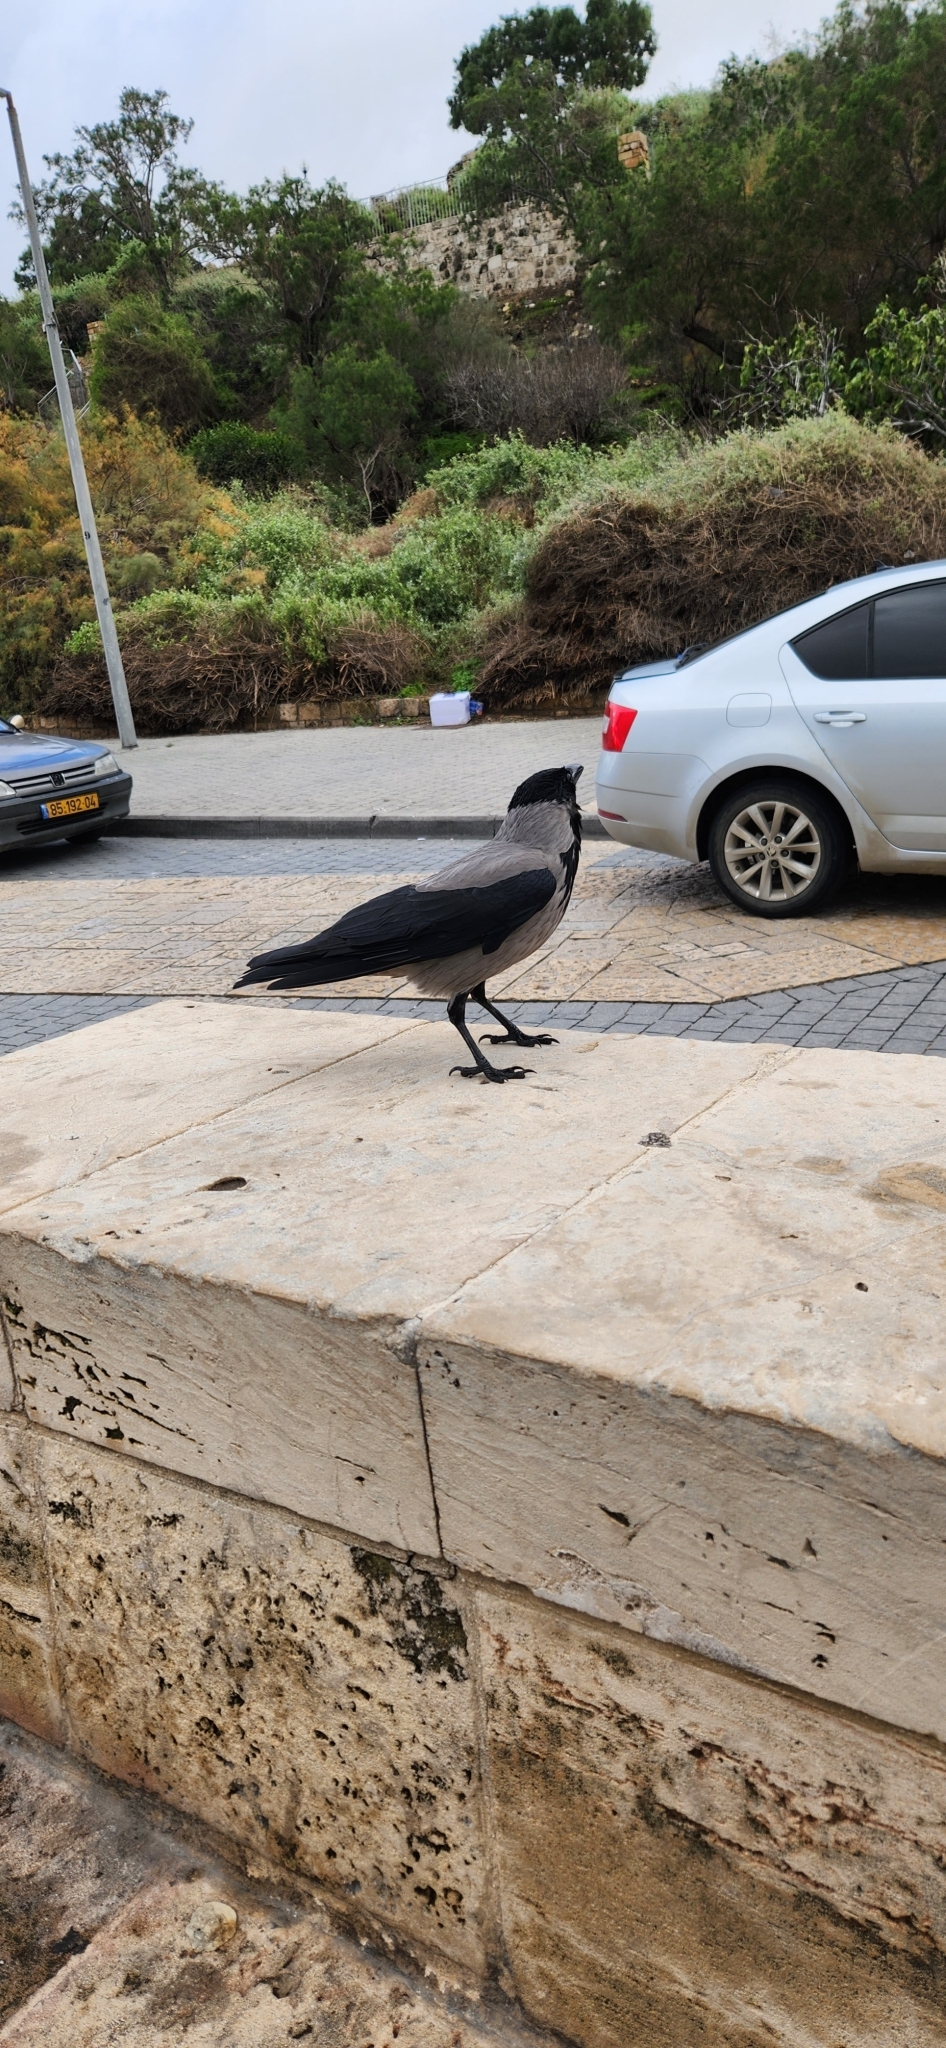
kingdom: Animalia
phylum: Chordata
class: Aves
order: Passeriformes
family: Corvidae
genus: Corvus
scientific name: Corvus cornix
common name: Hooded crow
